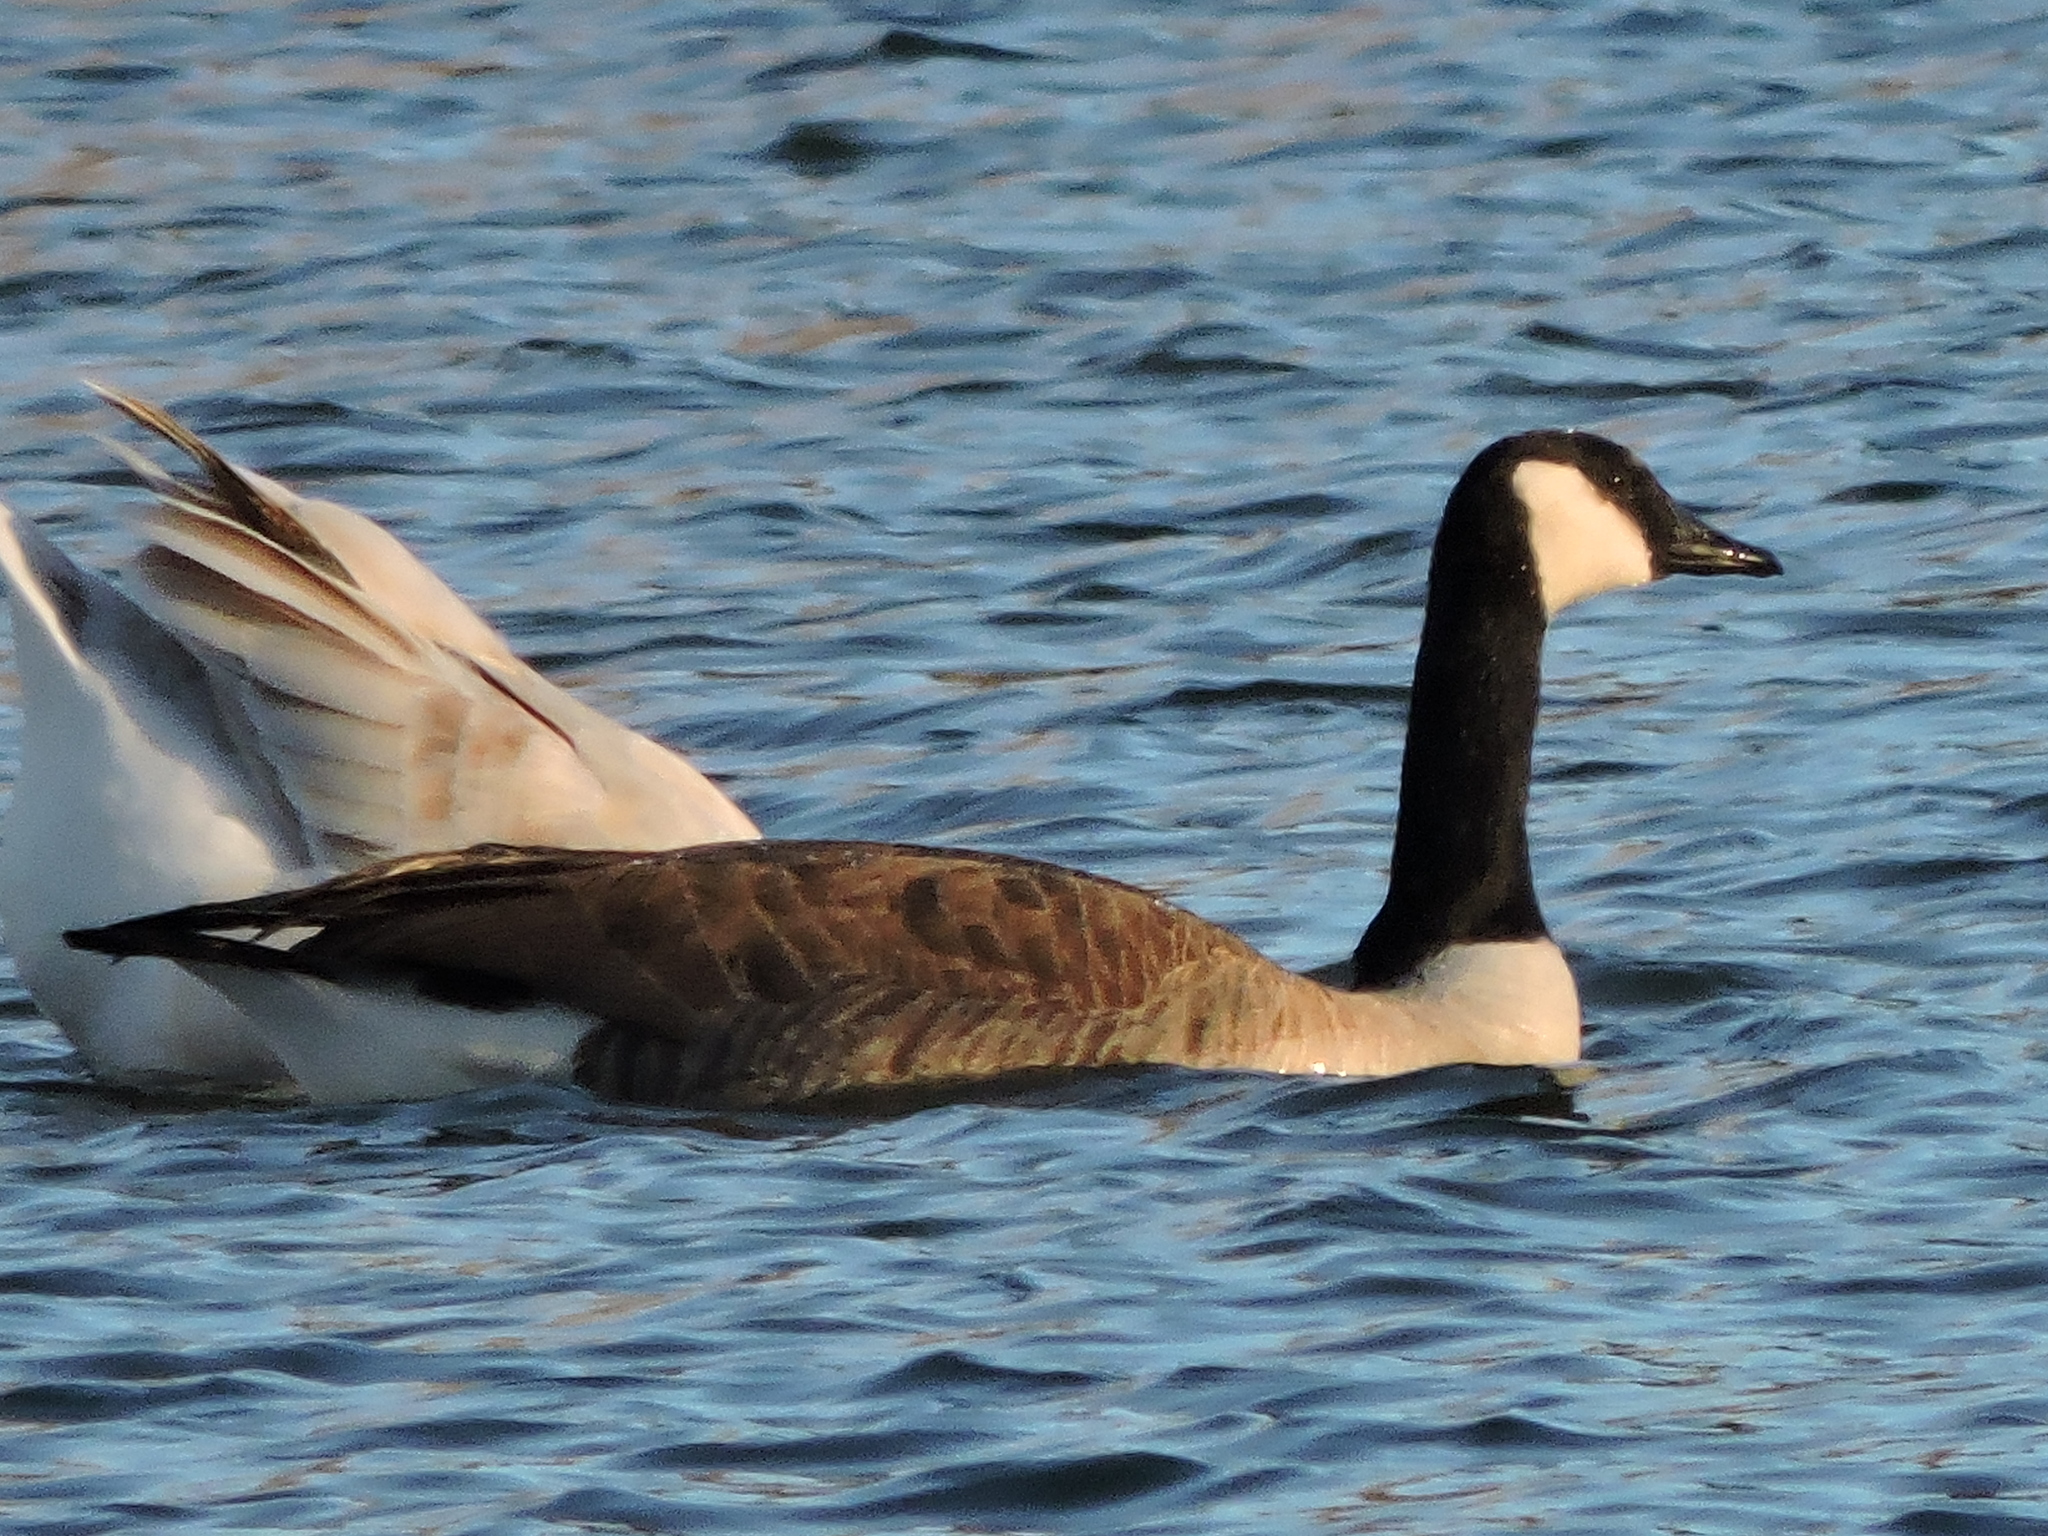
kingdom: Animalia
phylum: Chordata
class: Aves
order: Anseriformes
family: Anatidae
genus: Branta
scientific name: Branta canadensis
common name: Canada goose
